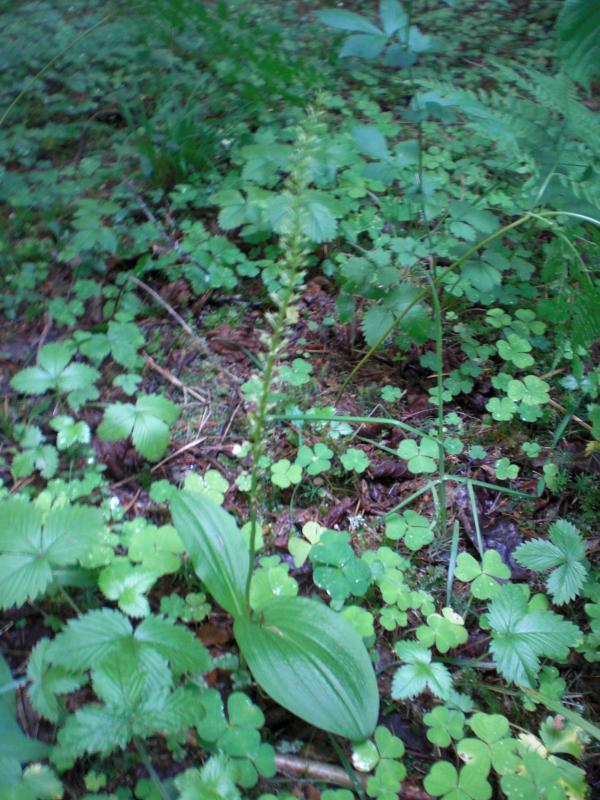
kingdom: Plantae
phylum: Tracheophyta
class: Liliopsida
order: Asparagales
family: Orchidaceae
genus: Malaxis
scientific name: Malaxis monophyllos
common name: White adder's-mouth
